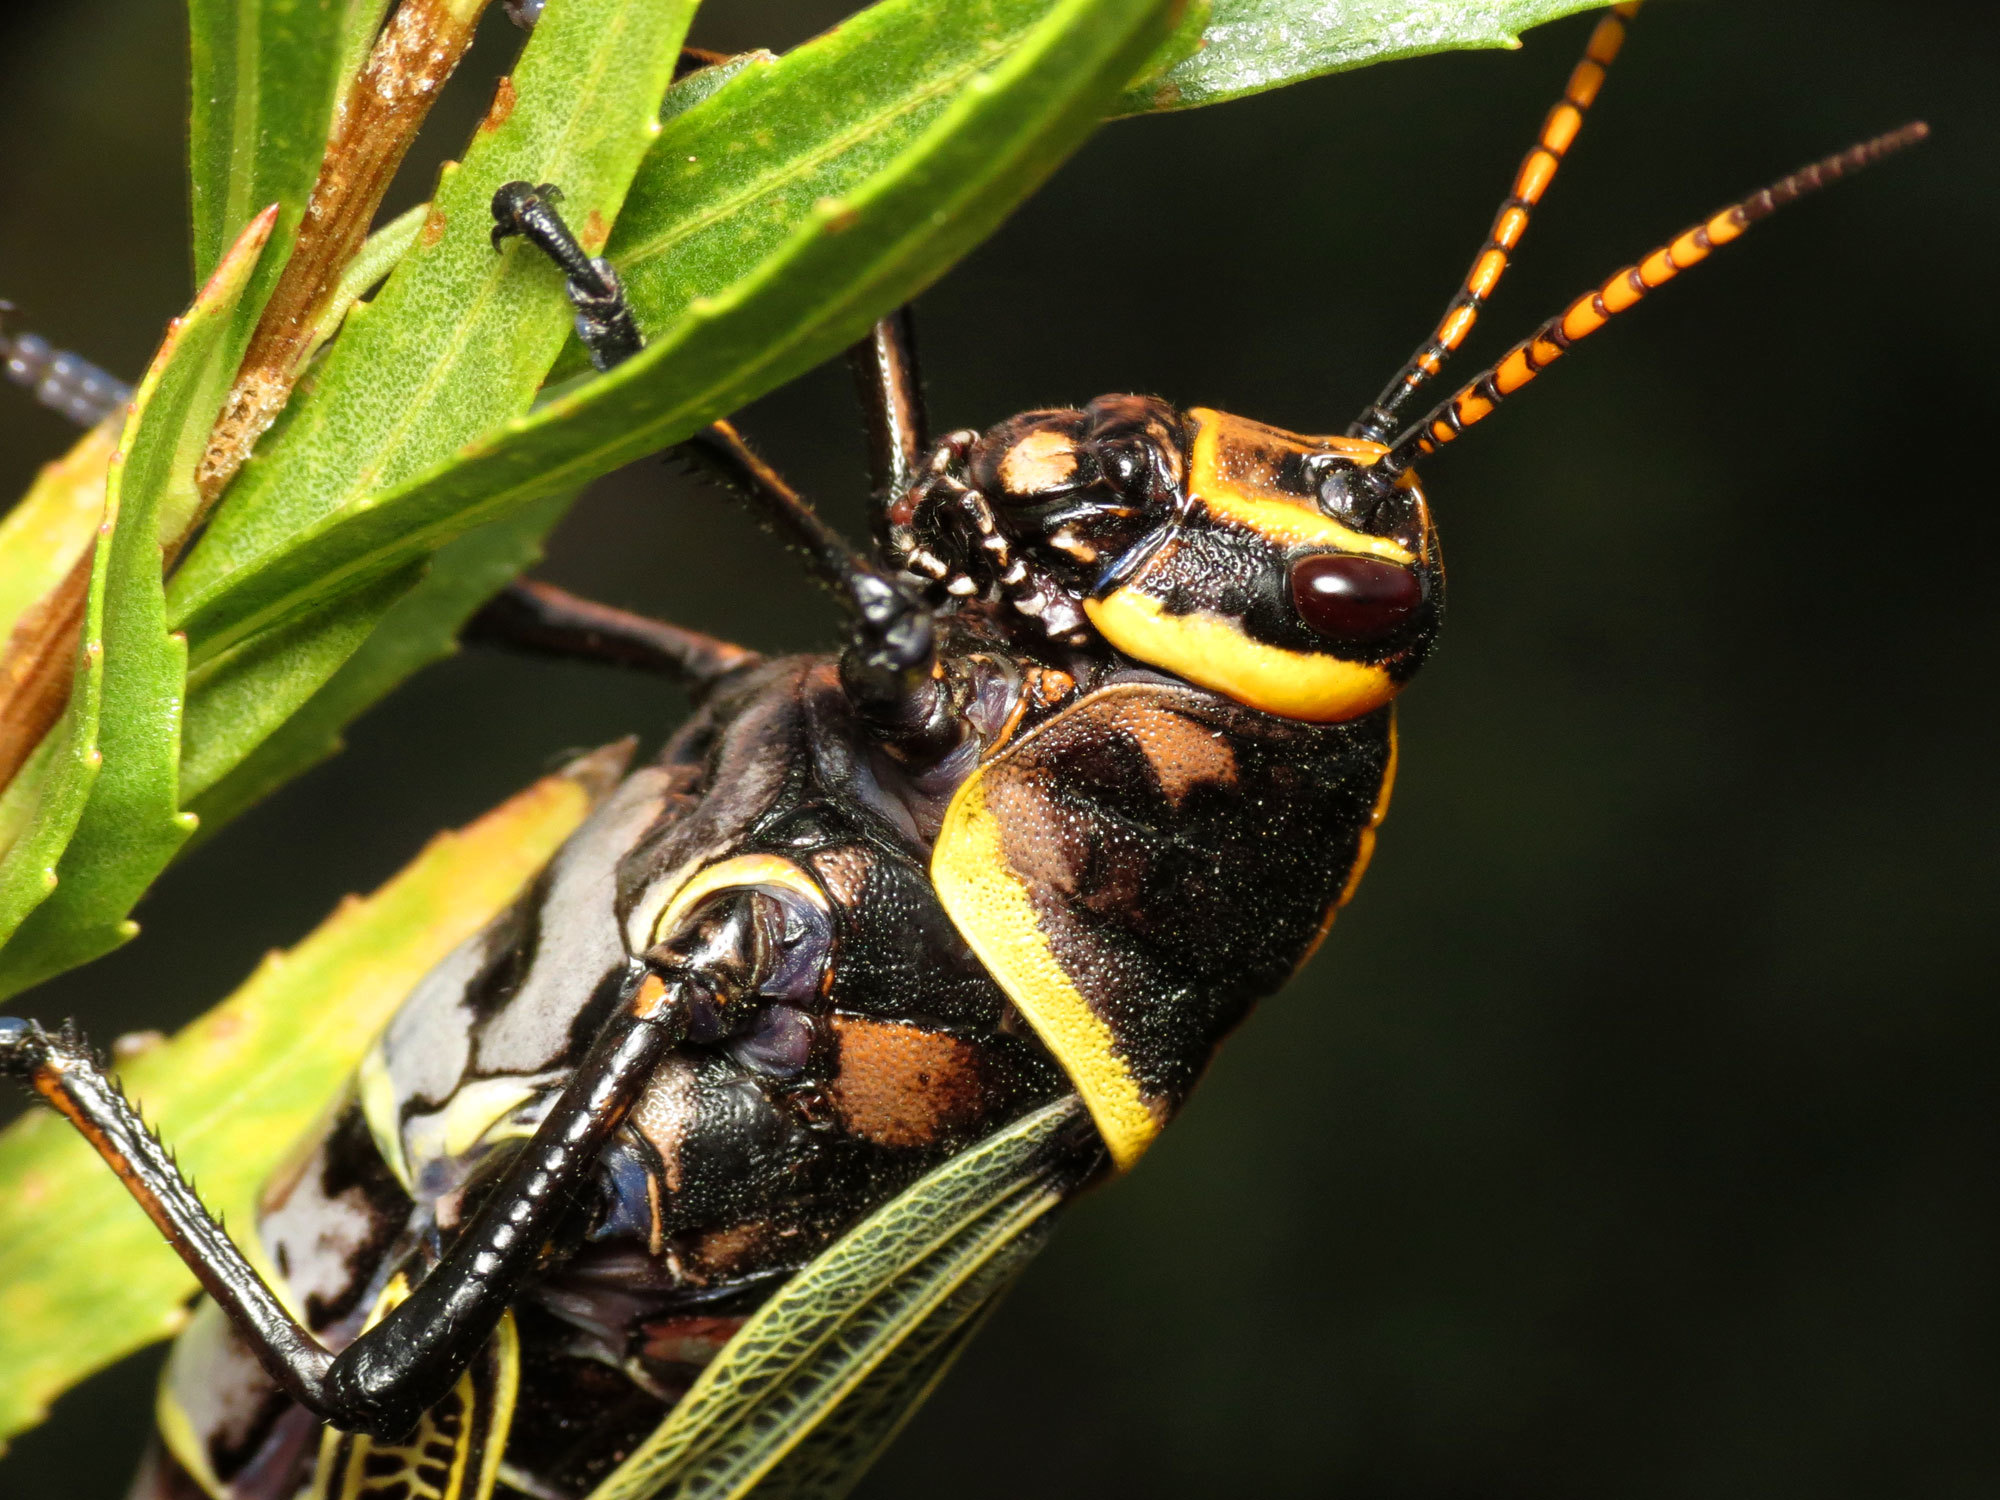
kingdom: Animalia
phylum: Arthropoda
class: Insecta
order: Orthoptera
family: Romaleidae
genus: Romalea
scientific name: Romalea
